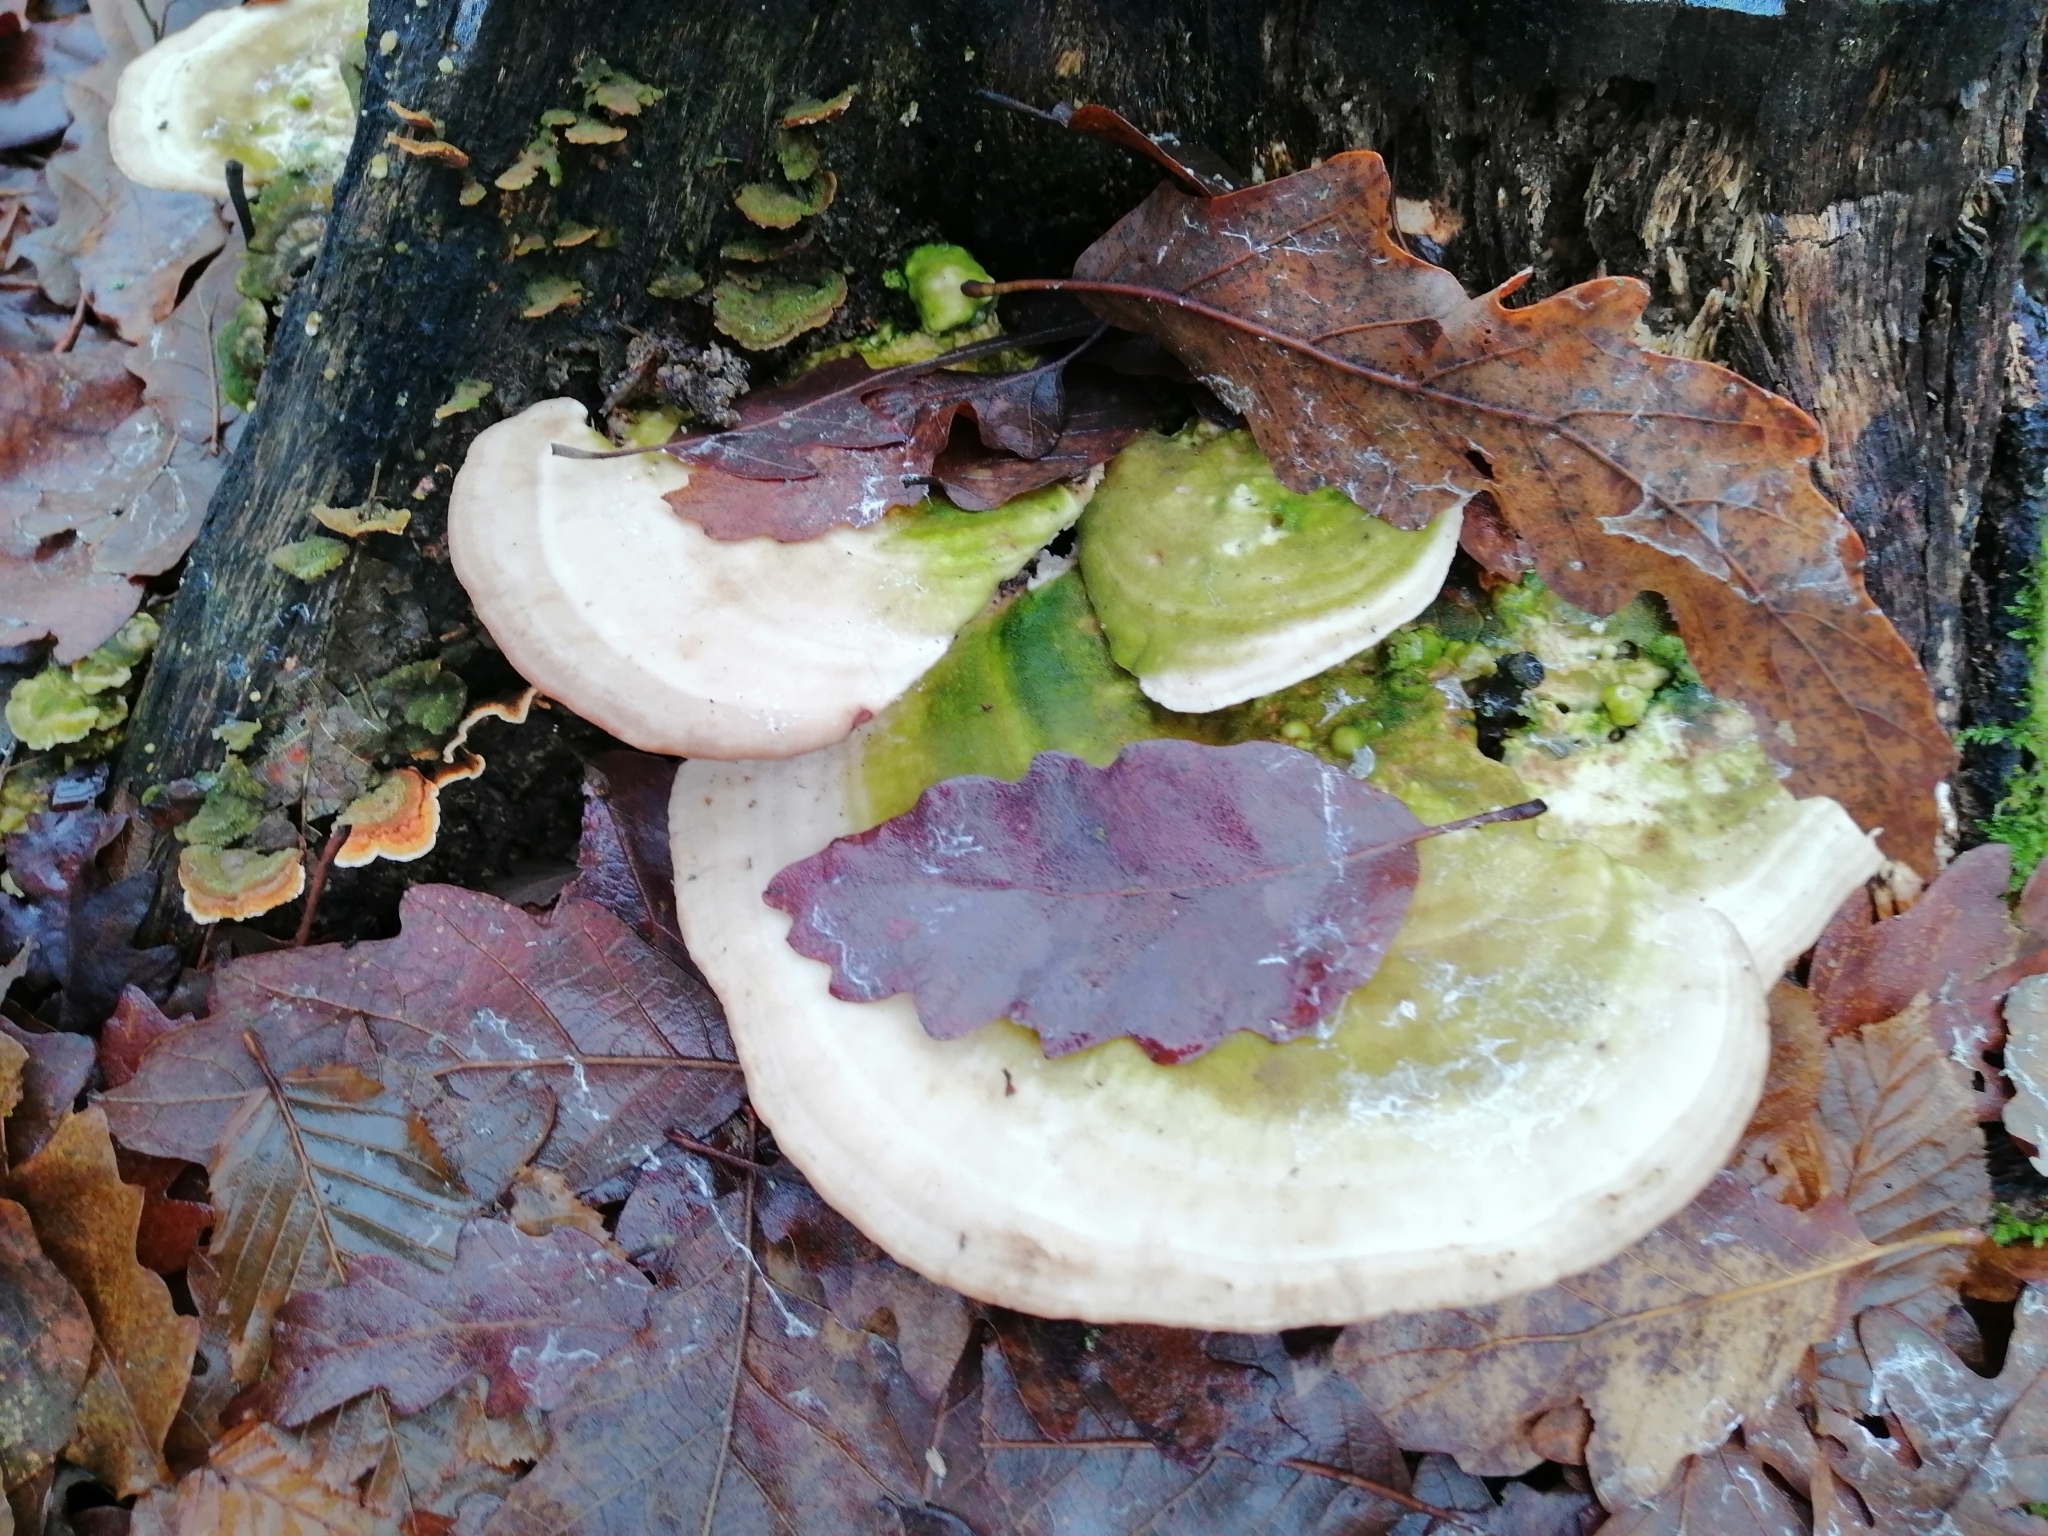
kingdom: Fungi
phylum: Basidiomycota
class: Agaricomycetes
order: Polyporales
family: Polyporaceae
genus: Trametes
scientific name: Trametes gibbosa
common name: Lumpy bracket
